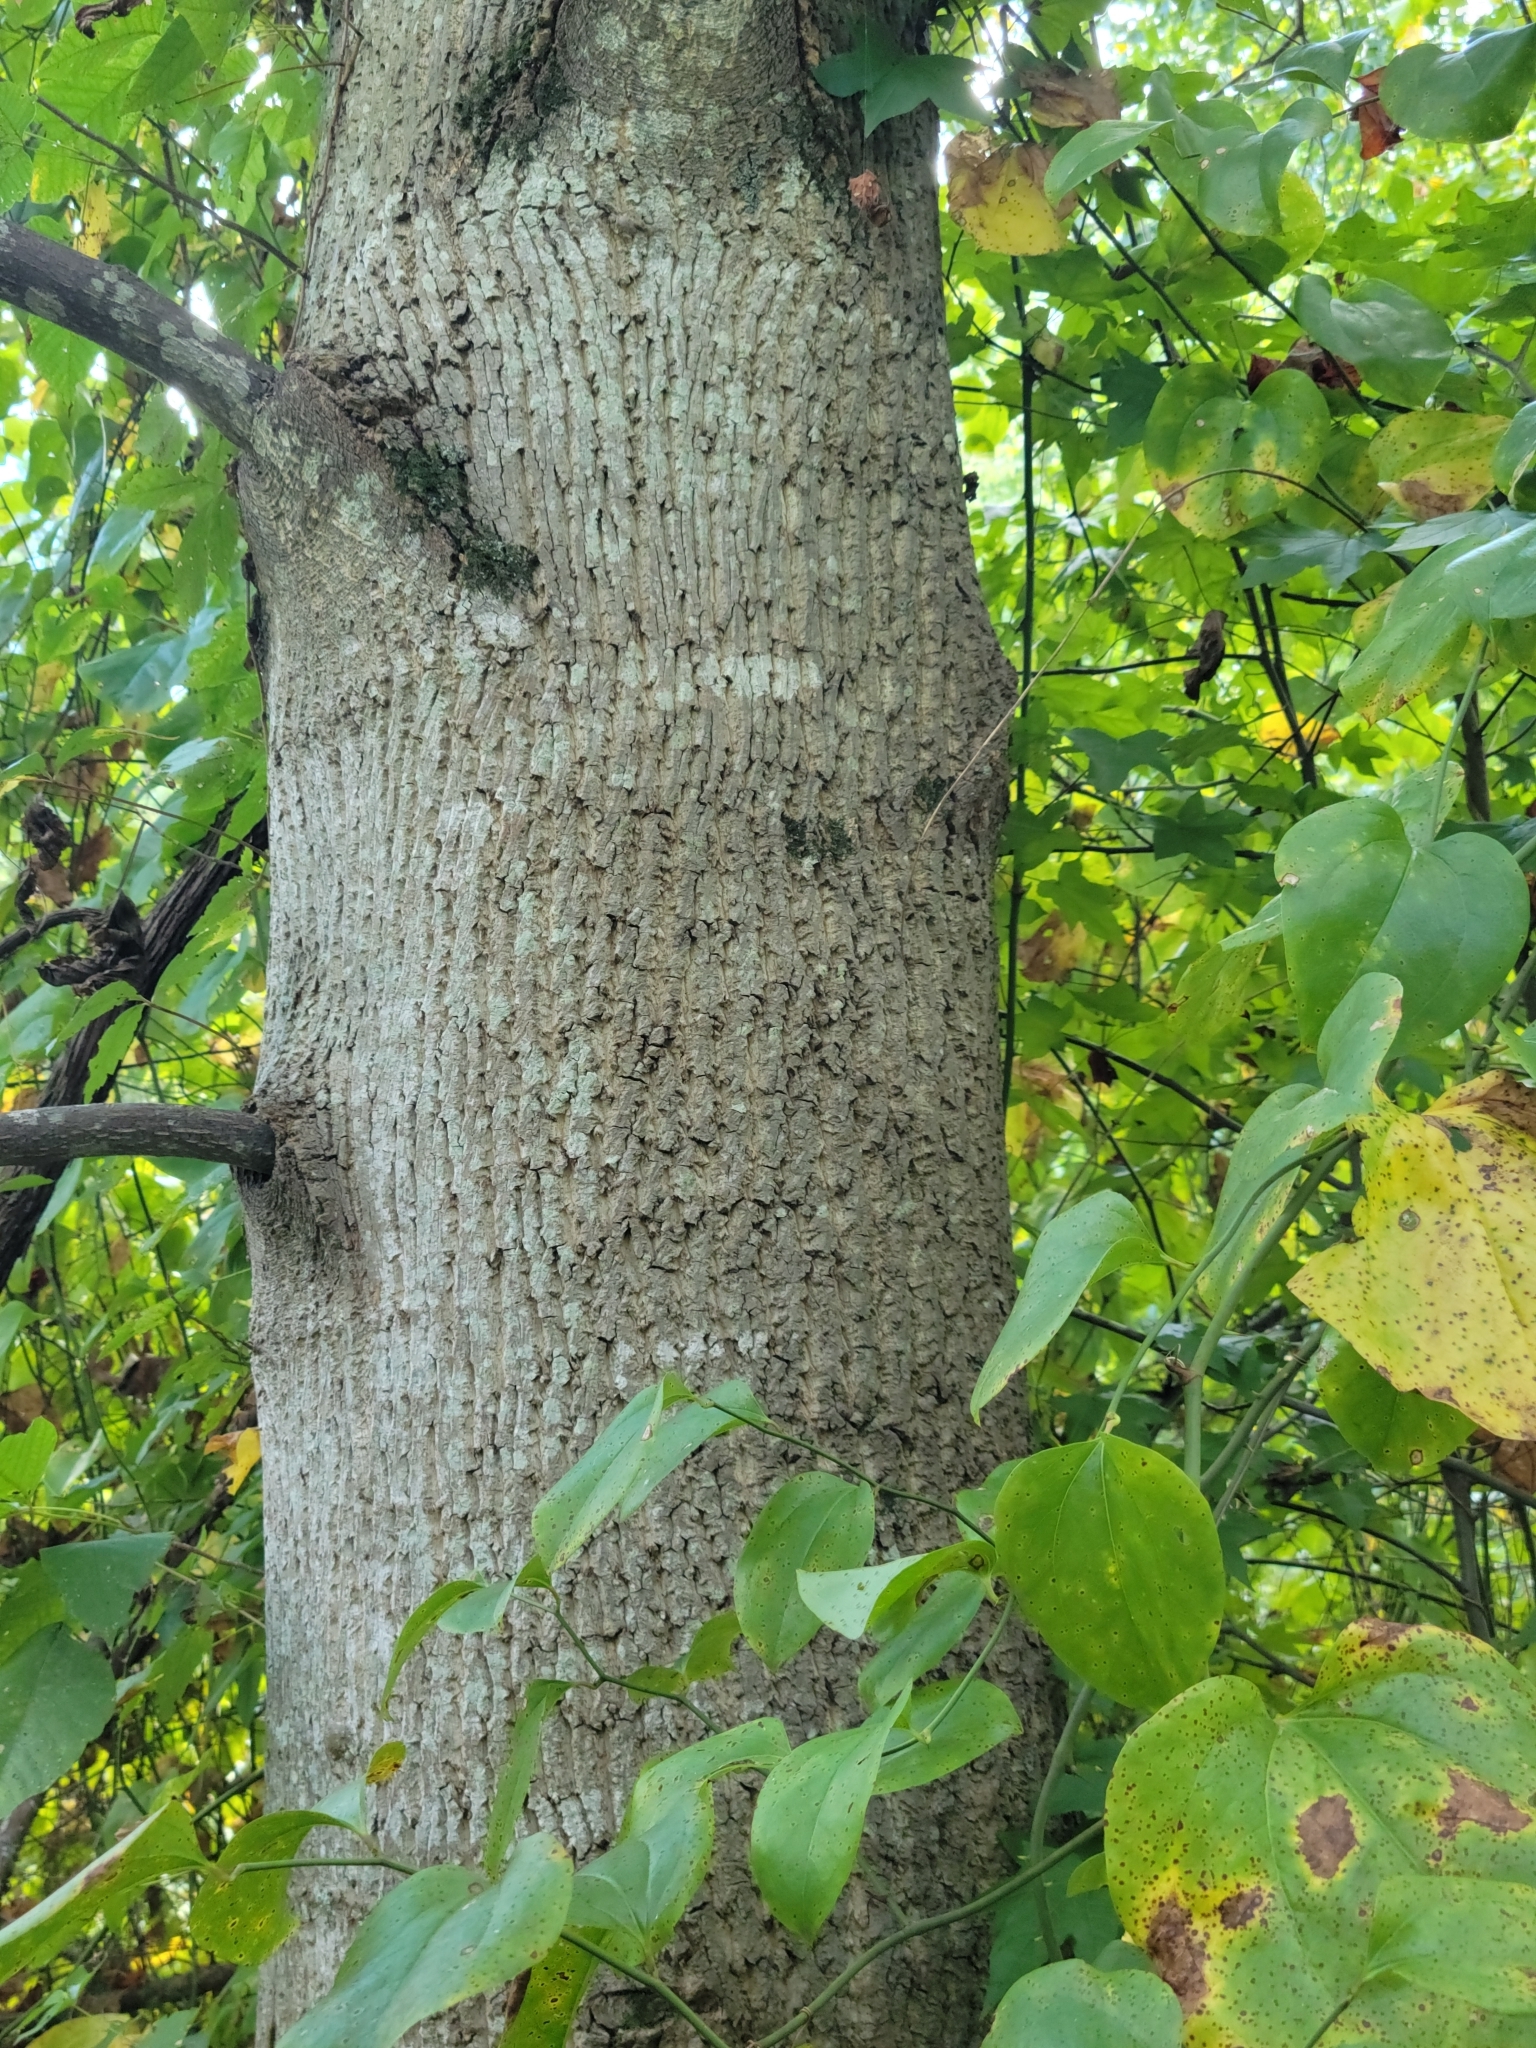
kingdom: Plantae
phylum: Tracheophyta
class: Magnoliopsida
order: Magnoliales
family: Magnoliaceae
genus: Liriodendron
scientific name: Liriodendron tulipifera
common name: Tulip tree
